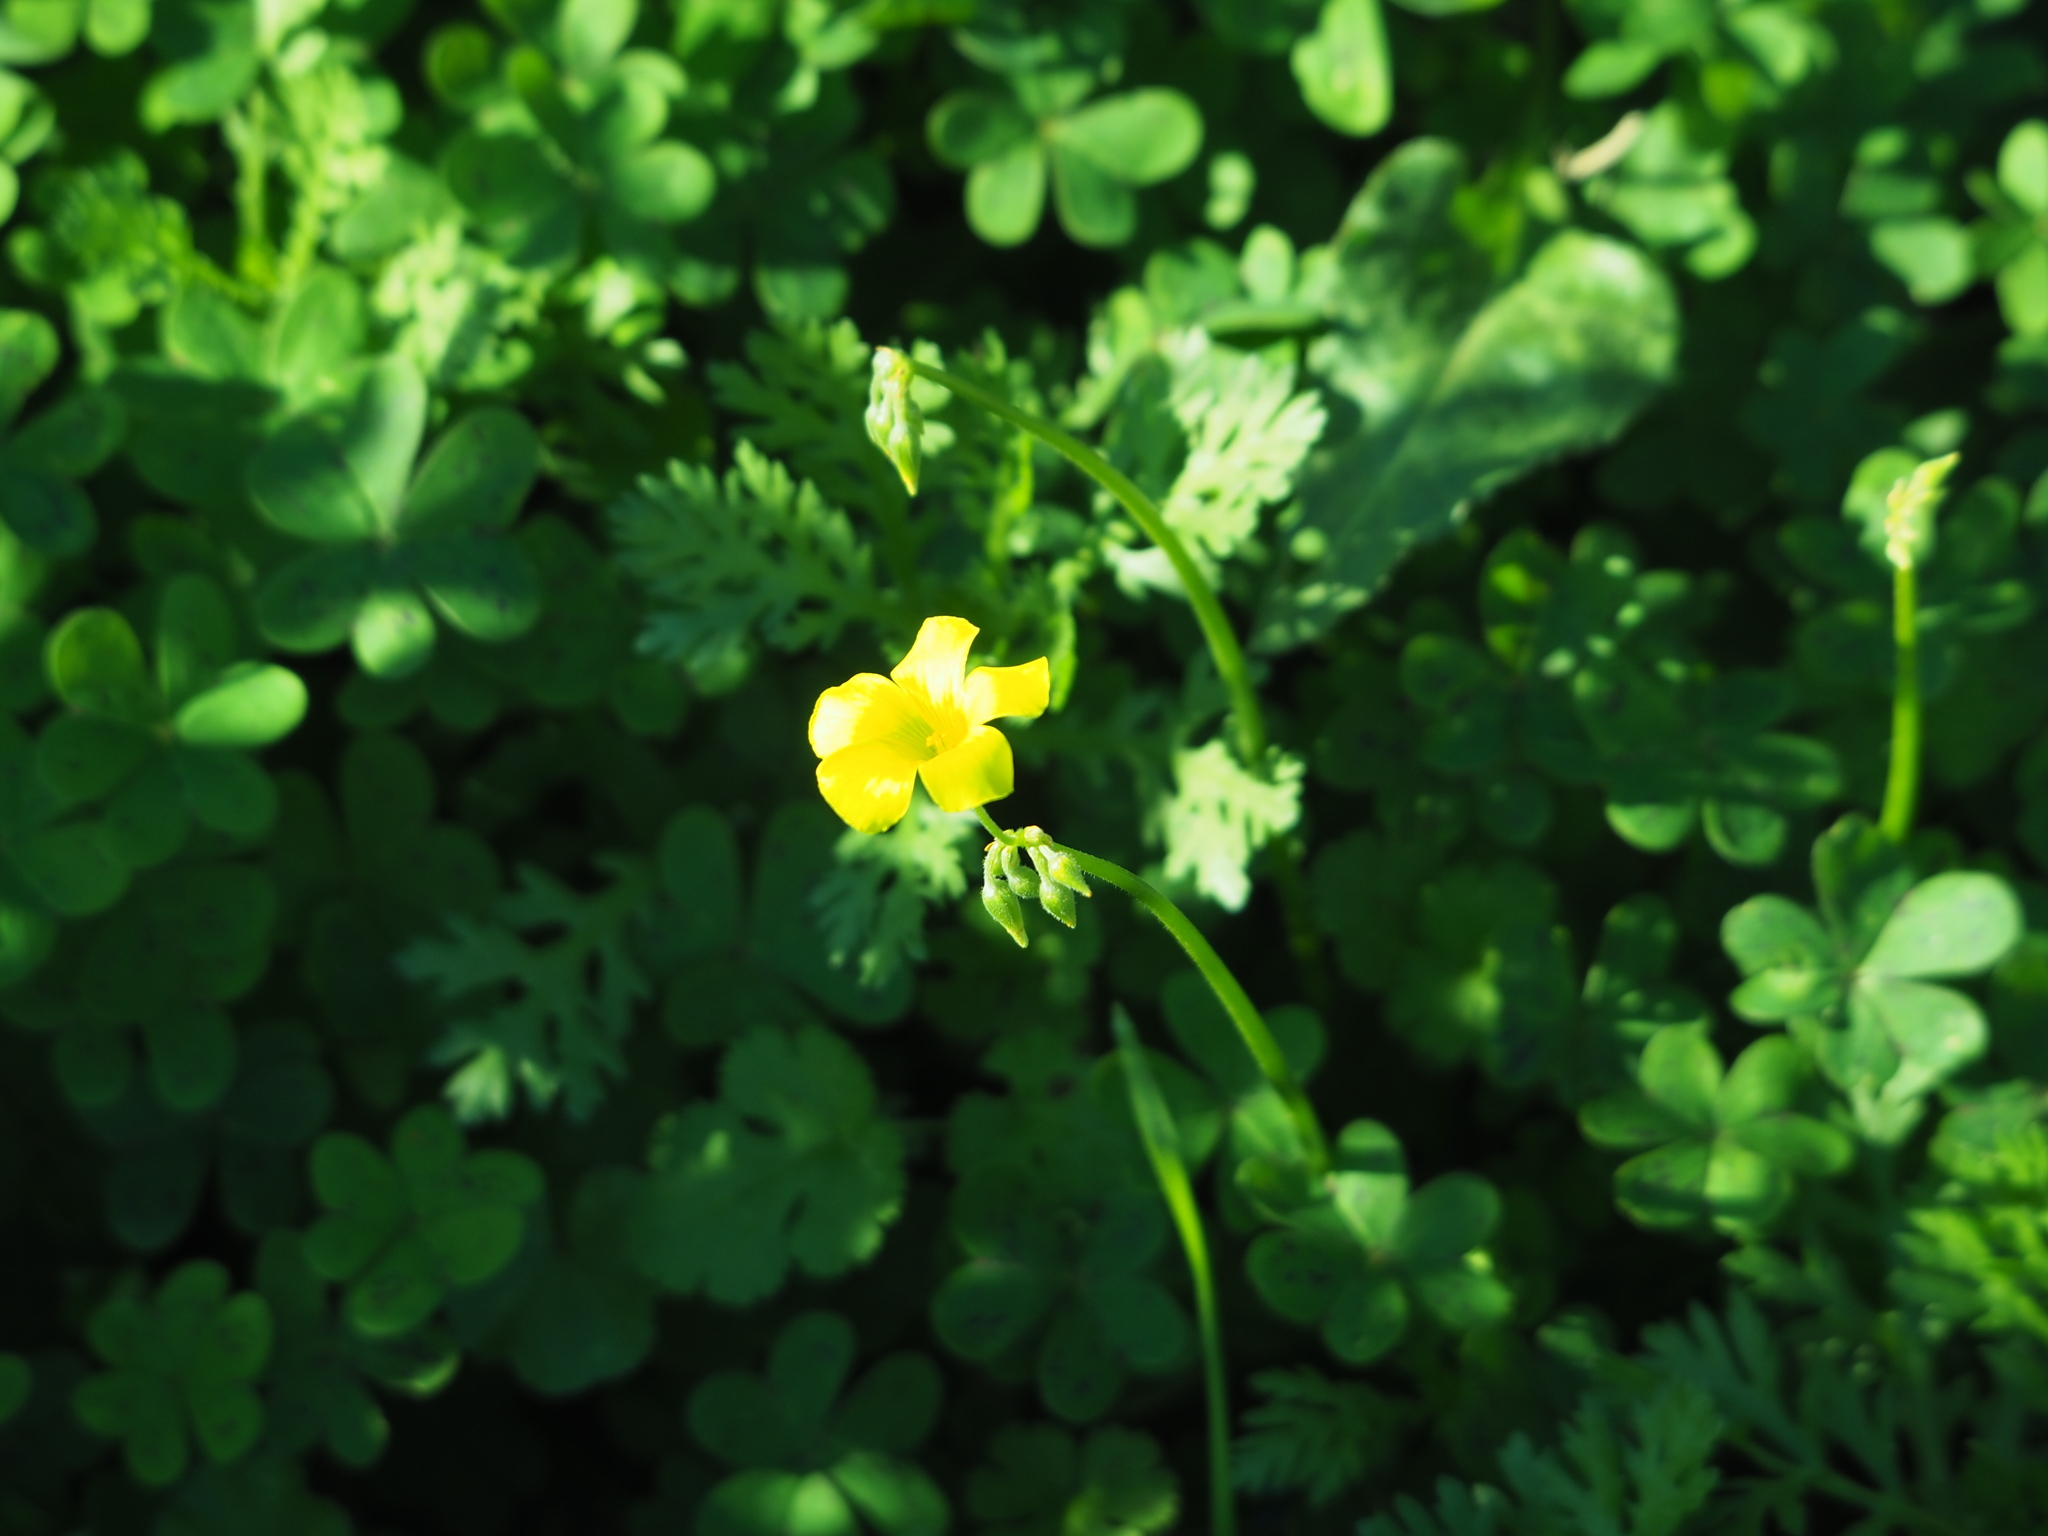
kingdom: Plantae
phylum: Tracheophyta
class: Magnoliopsida
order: Oxalidales
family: Oxalidaceae
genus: Oxalis
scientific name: Oxalis pes-caprae
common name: Bermuda-buttercup
